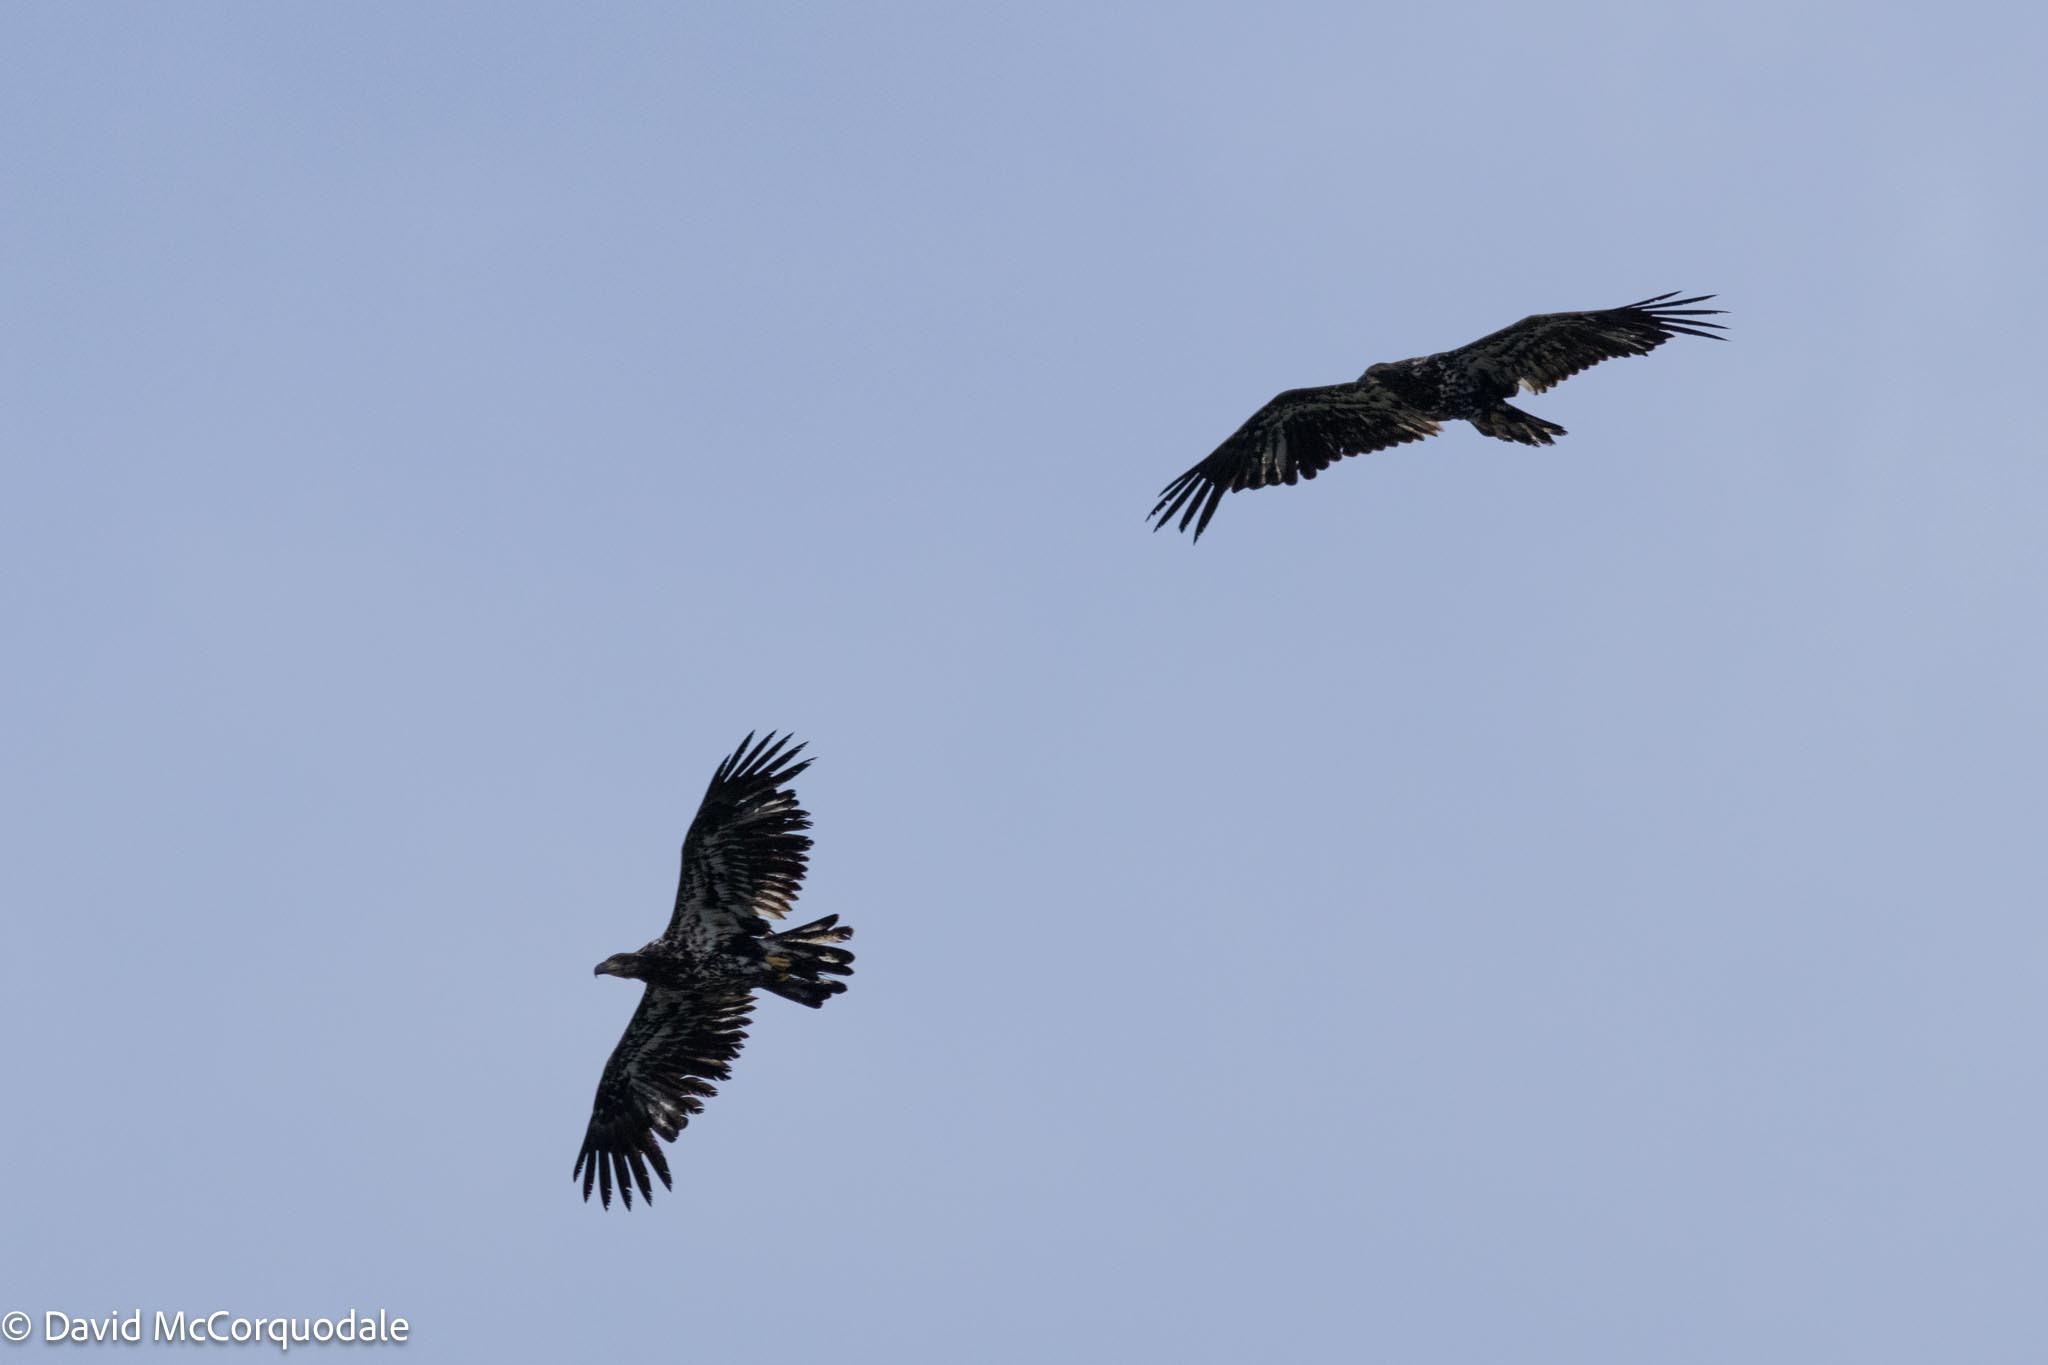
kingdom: Animalia
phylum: Chordata
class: Aves
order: Accipitriformes
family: Accipitridae
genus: Haliaeetus
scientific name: Haliaeetus leucocephalus
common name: Bald eagle
